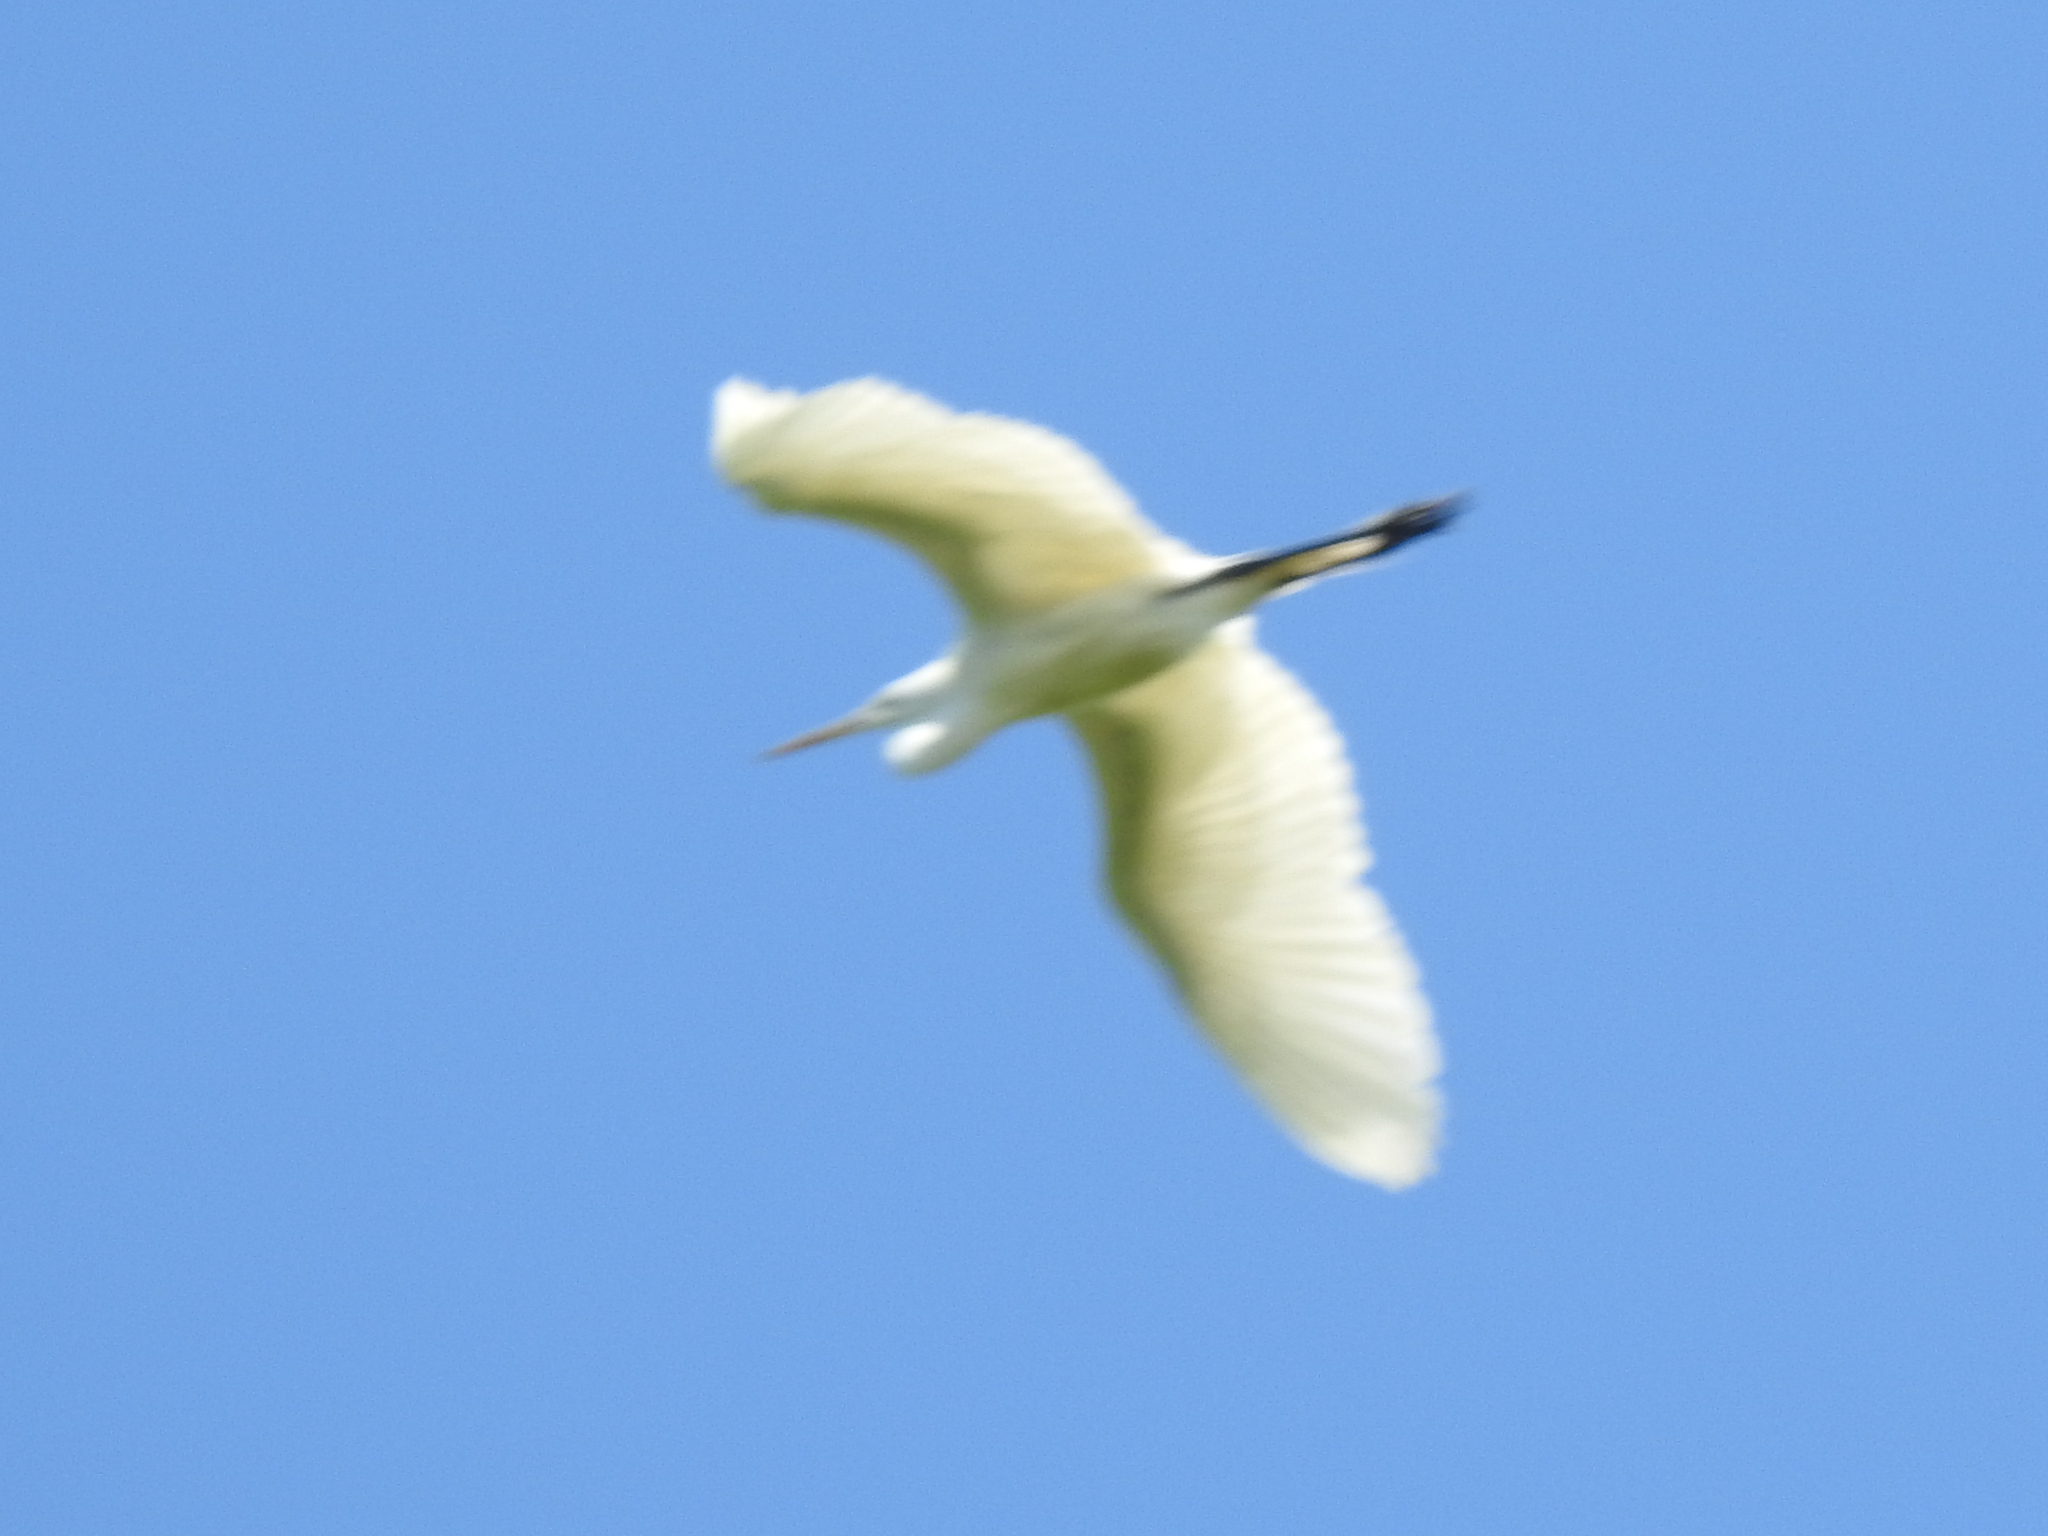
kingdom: Animalia
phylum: Chordata
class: Aves
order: Pelecaniformes
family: Ardeidae
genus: Ardea
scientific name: Ardea alba
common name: Great egret
